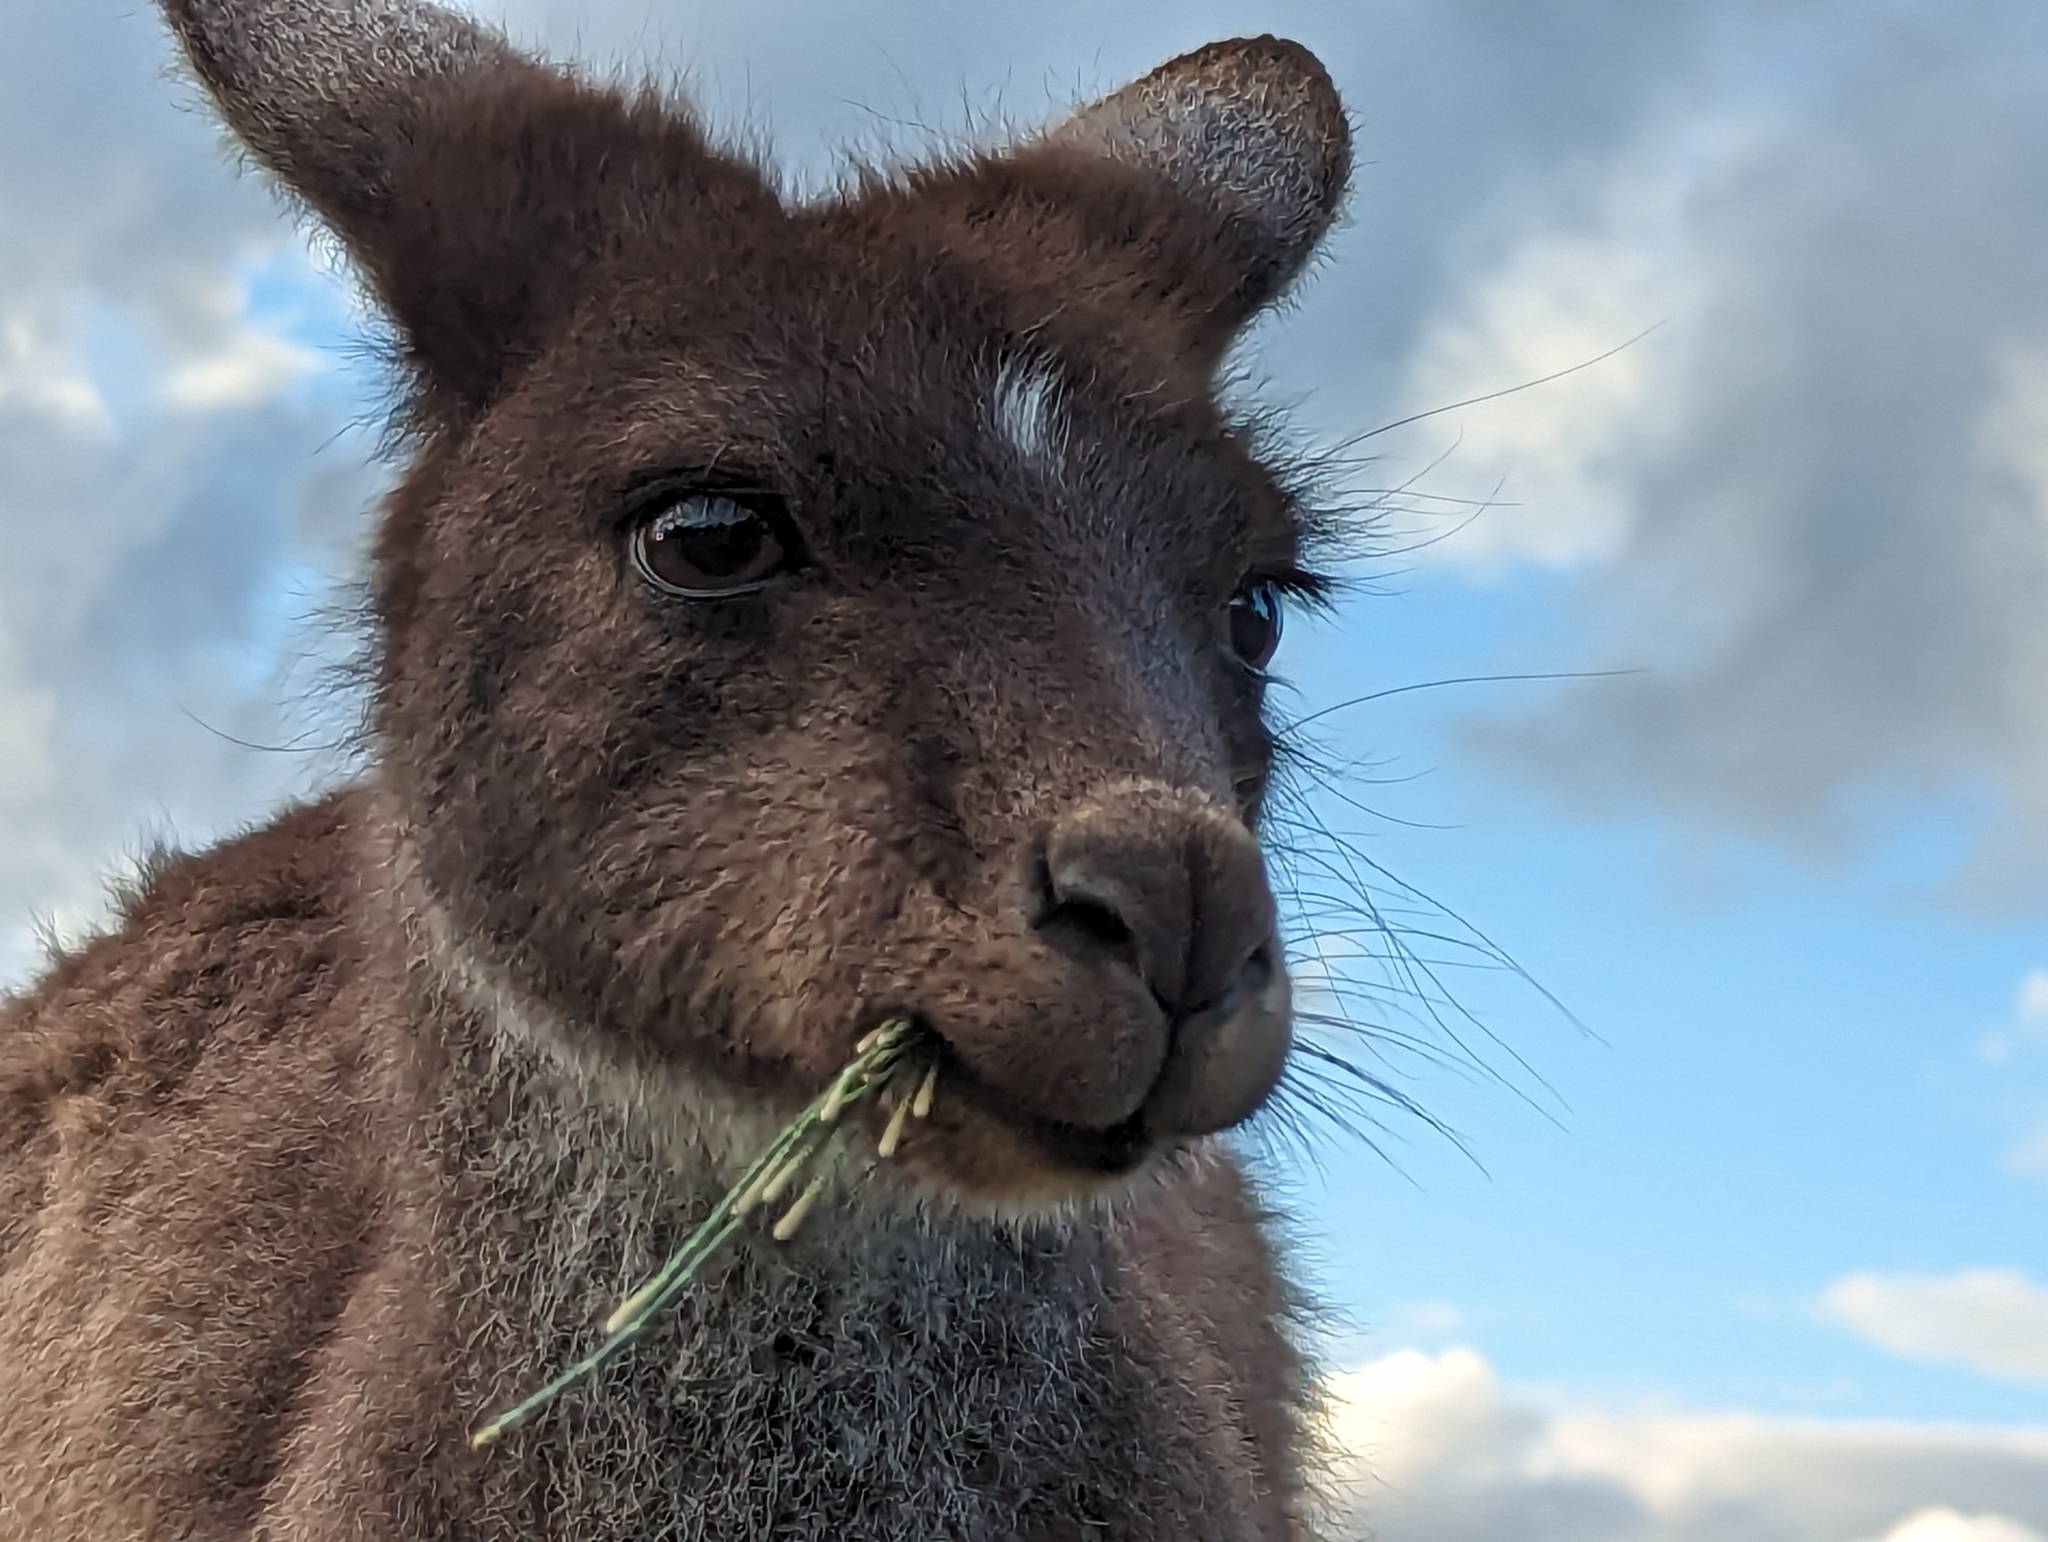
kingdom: Animalia
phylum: Chordata
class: Mammalia
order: Diprotodontia
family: Macropodidae
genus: Macropus
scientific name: Macropus fuliginosus
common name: Western grey kangaroo
